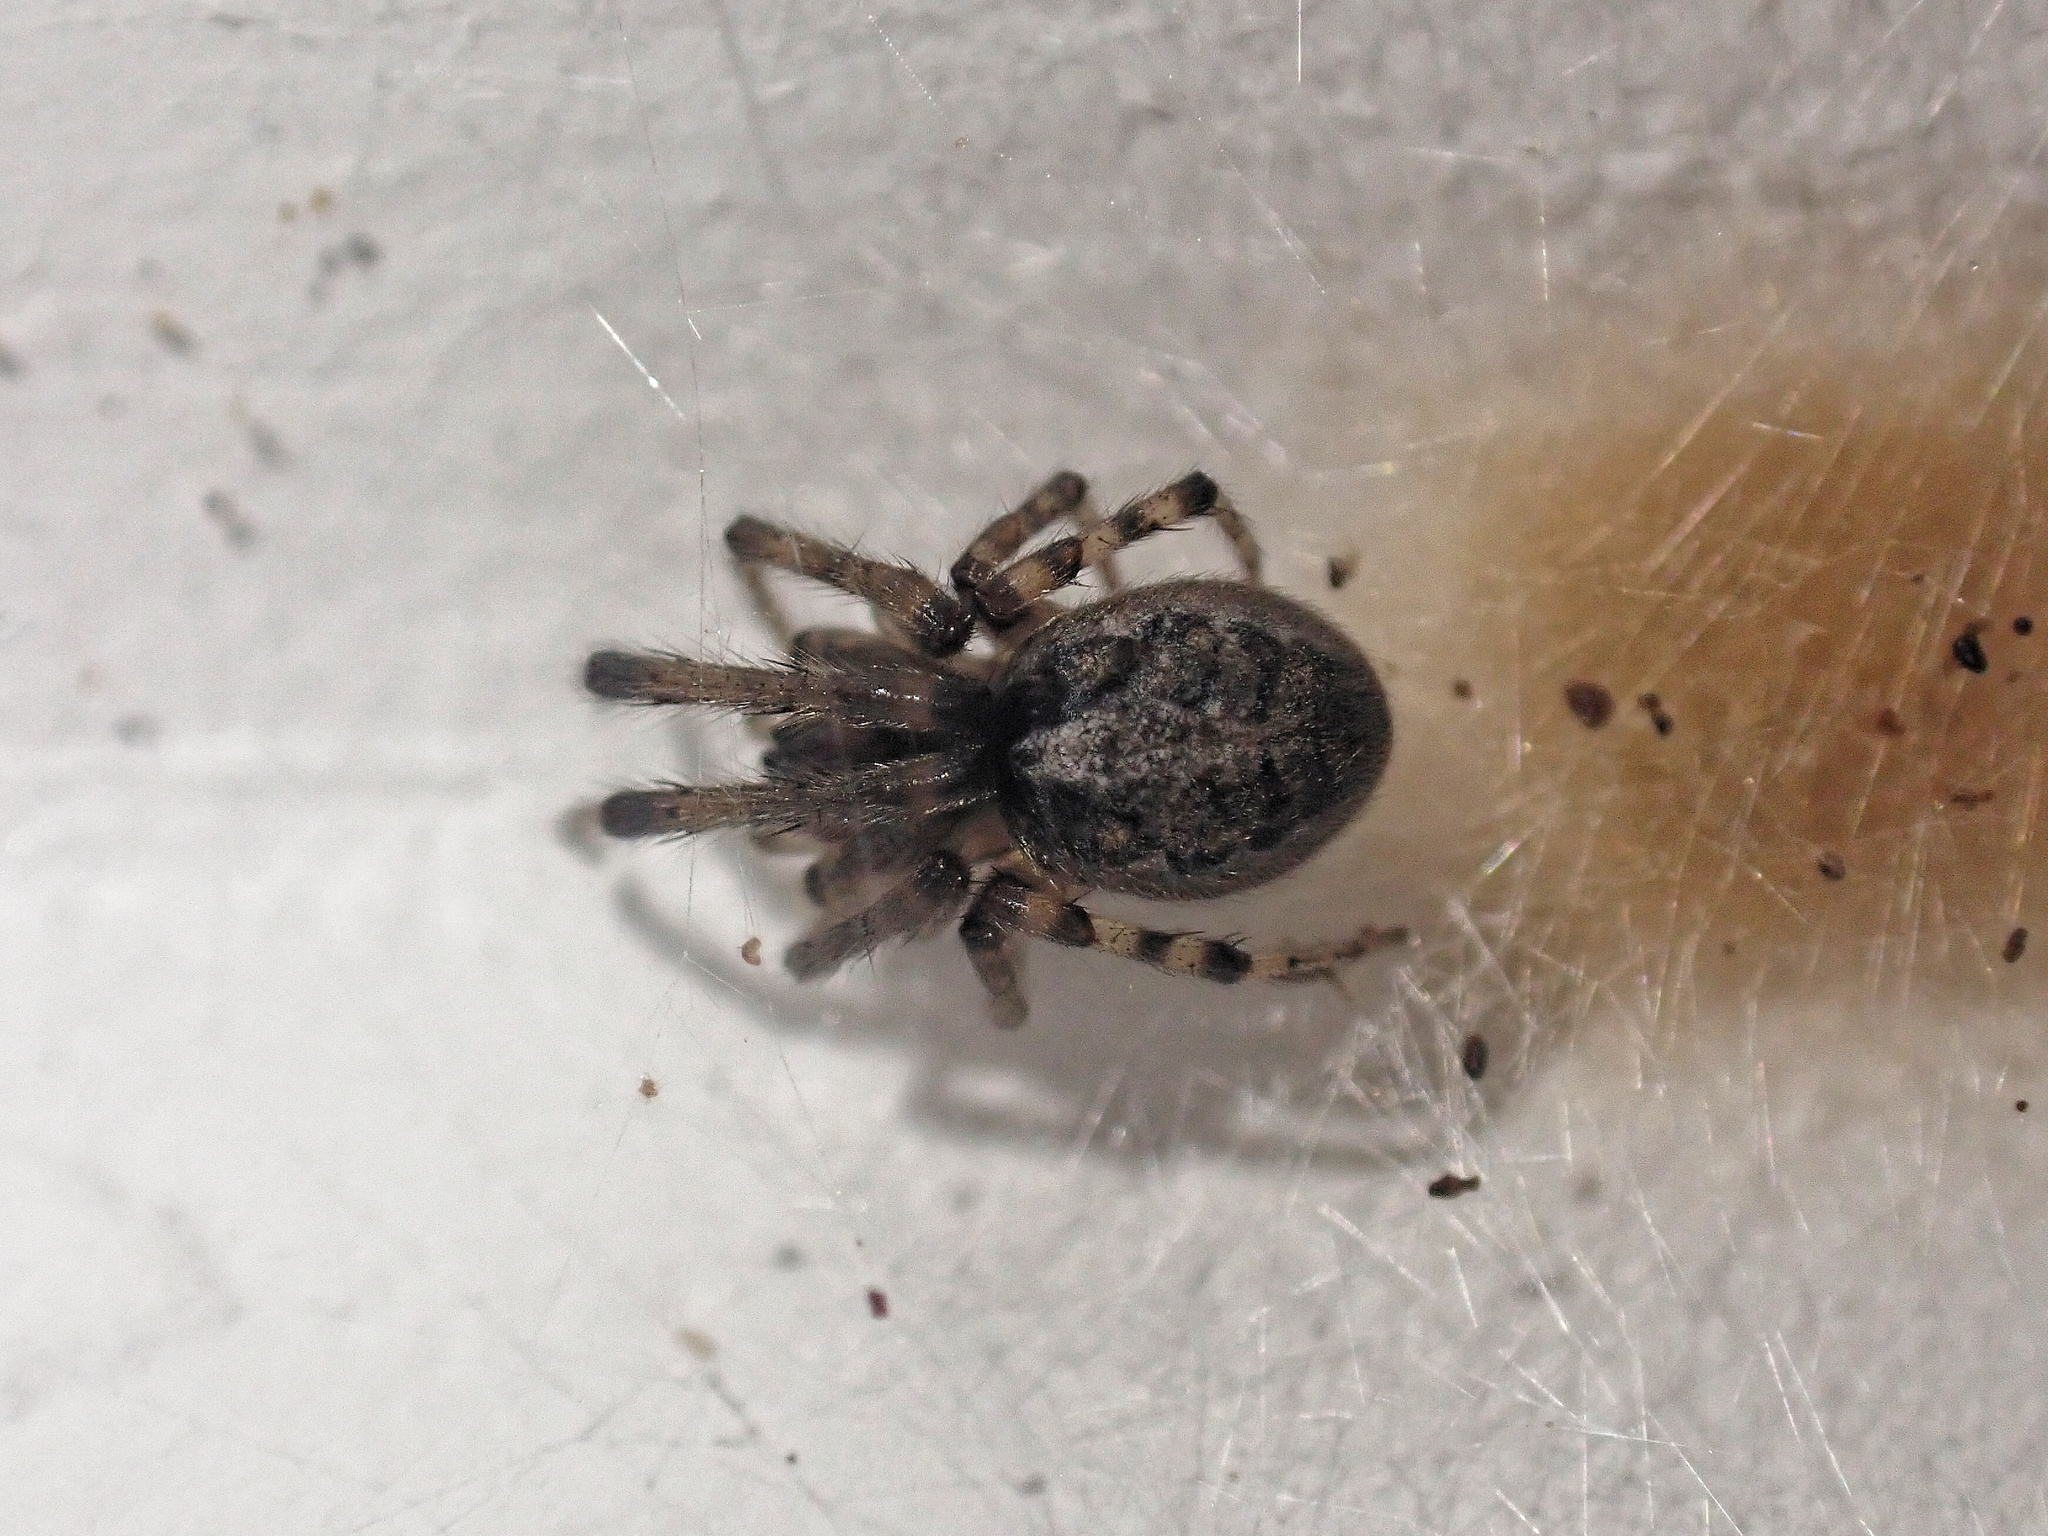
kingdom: Animalia
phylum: Arthropoda
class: Arachnida
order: Araneae
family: Araneidae
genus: Zygiella
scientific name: Zygiella x-notata
